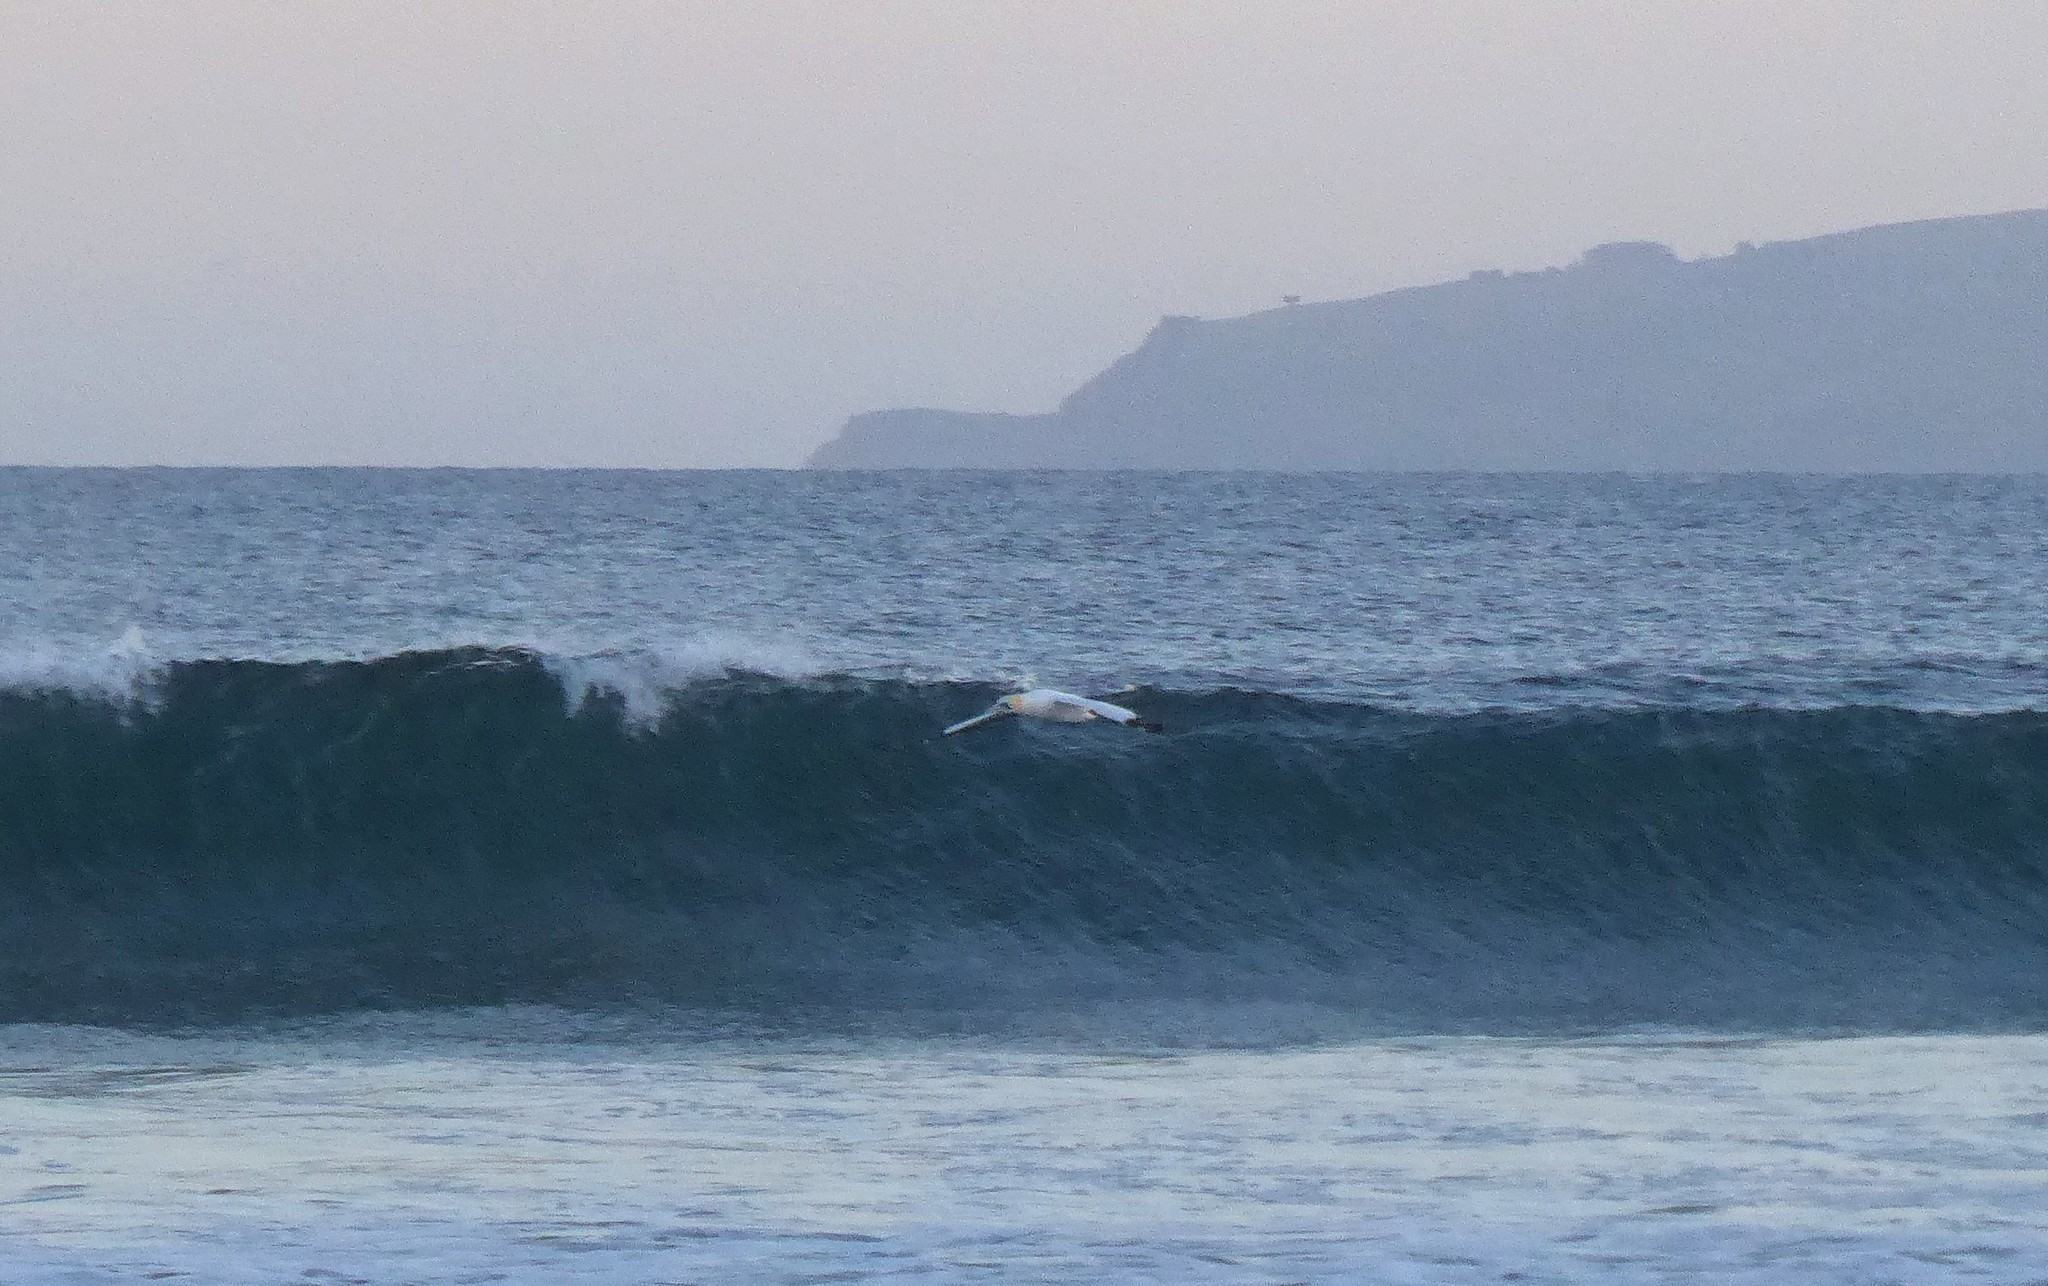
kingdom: Animalia
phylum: Chordata
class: Aves
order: Suliformes
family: Sulidae
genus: Morus
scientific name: Morus serrator
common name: Australasian gannet
